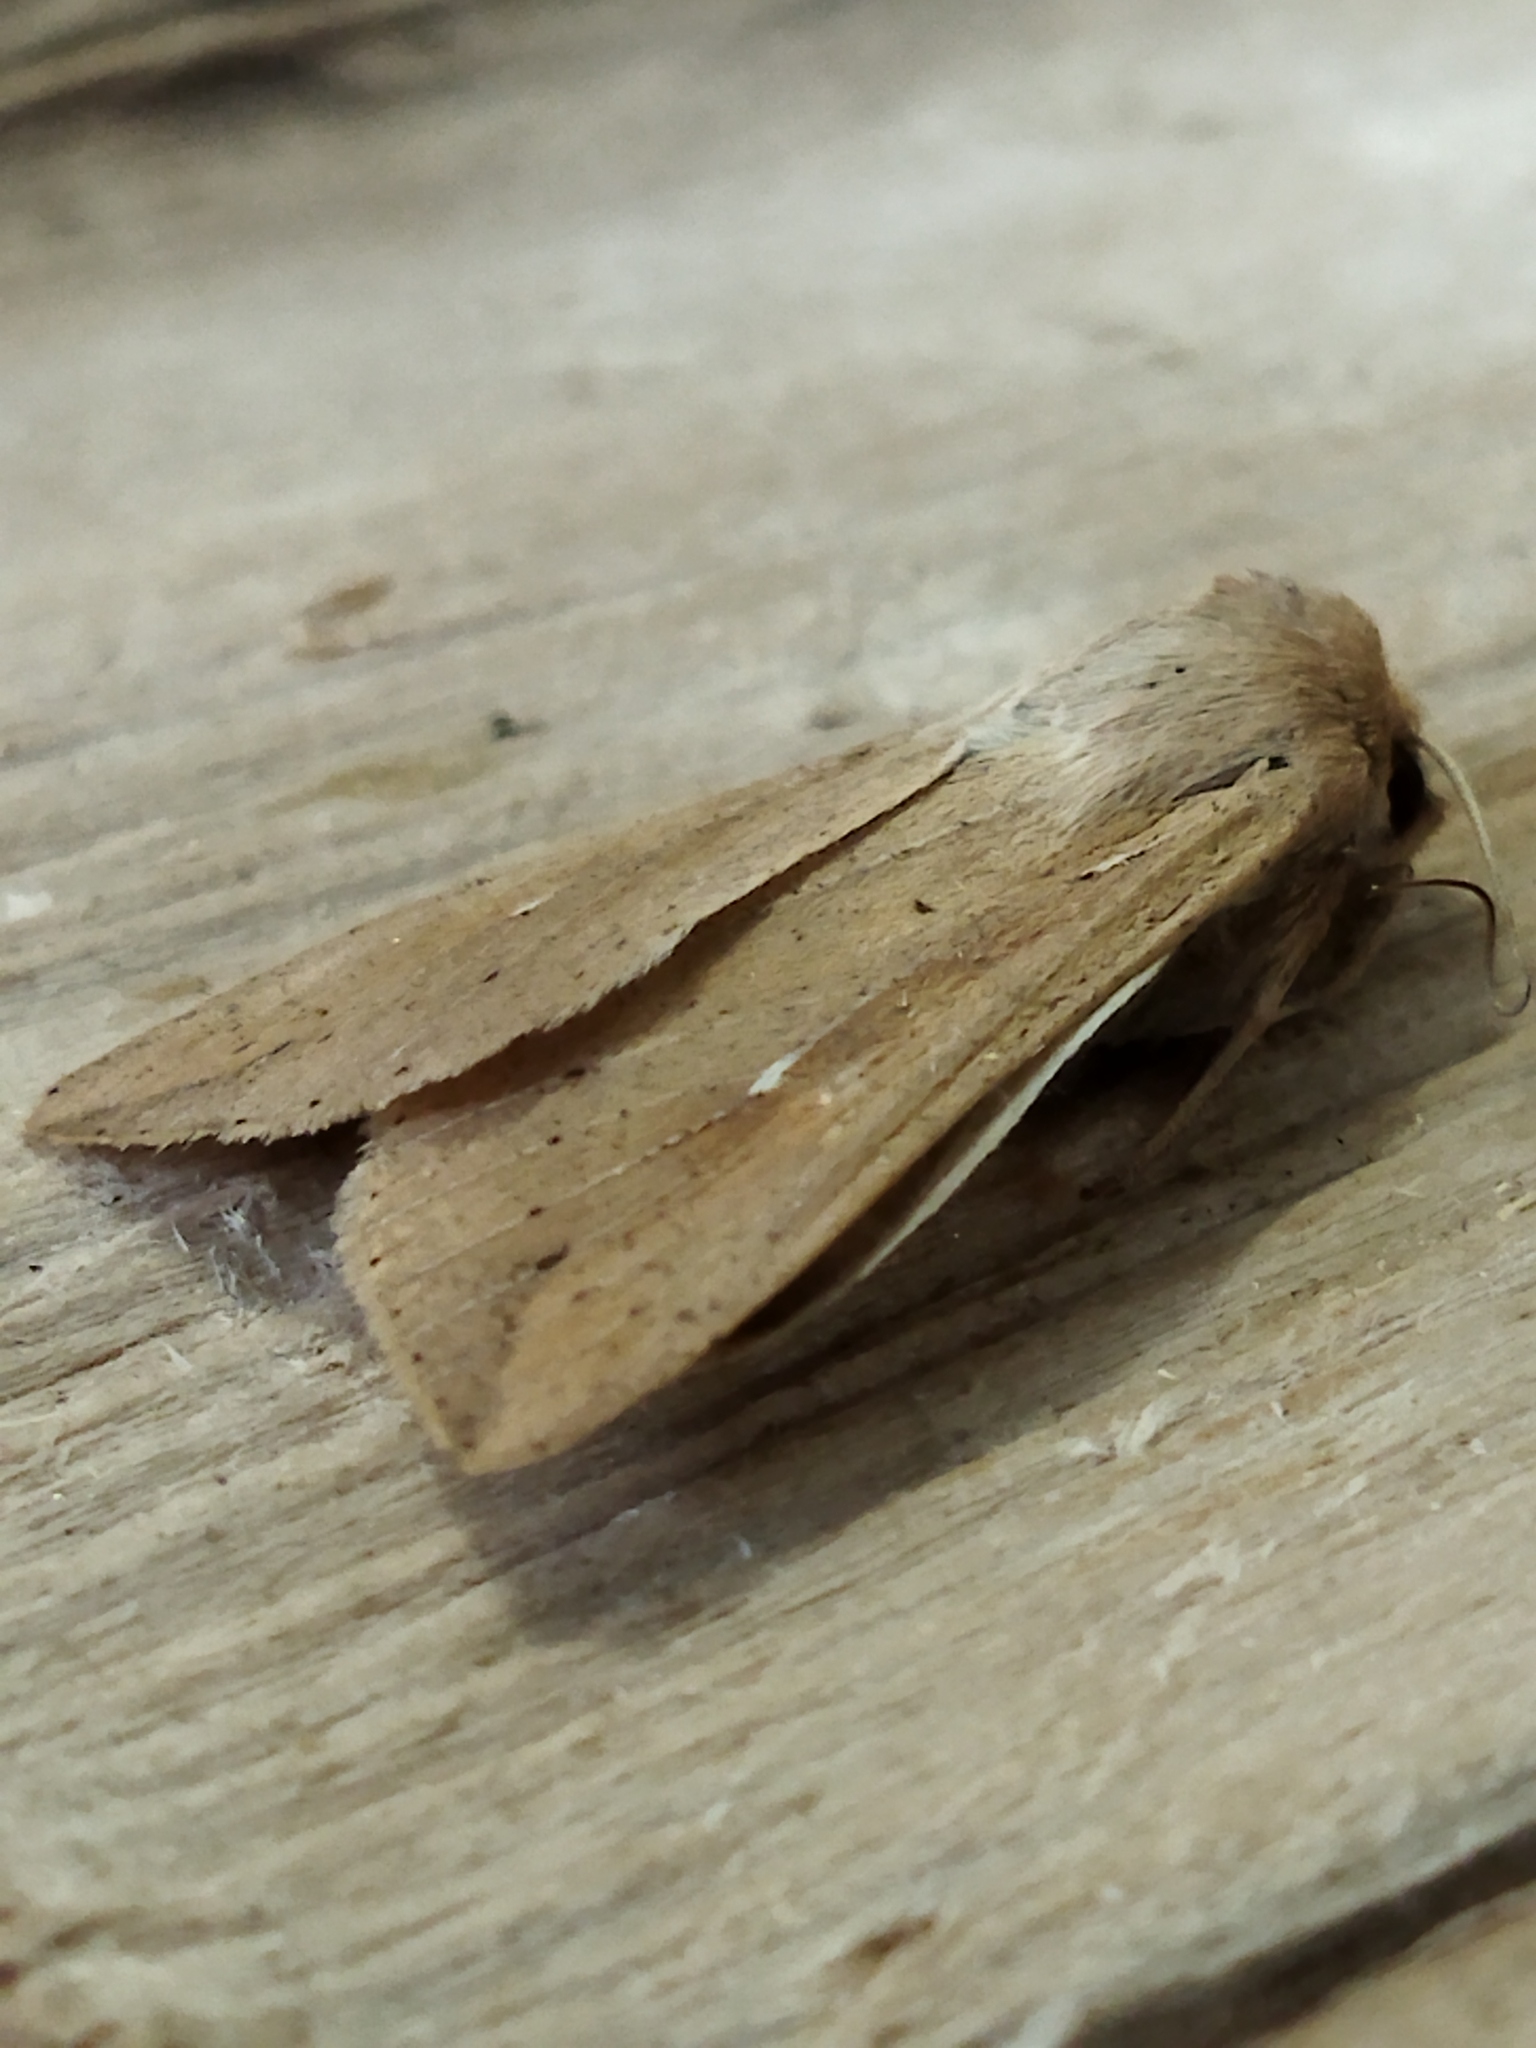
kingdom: Animalia
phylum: Arthropoda
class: Insecta
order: Lepidoptera
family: Noctuidae
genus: Mythimna
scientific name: Mythimna unipuncta
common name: White-speck
